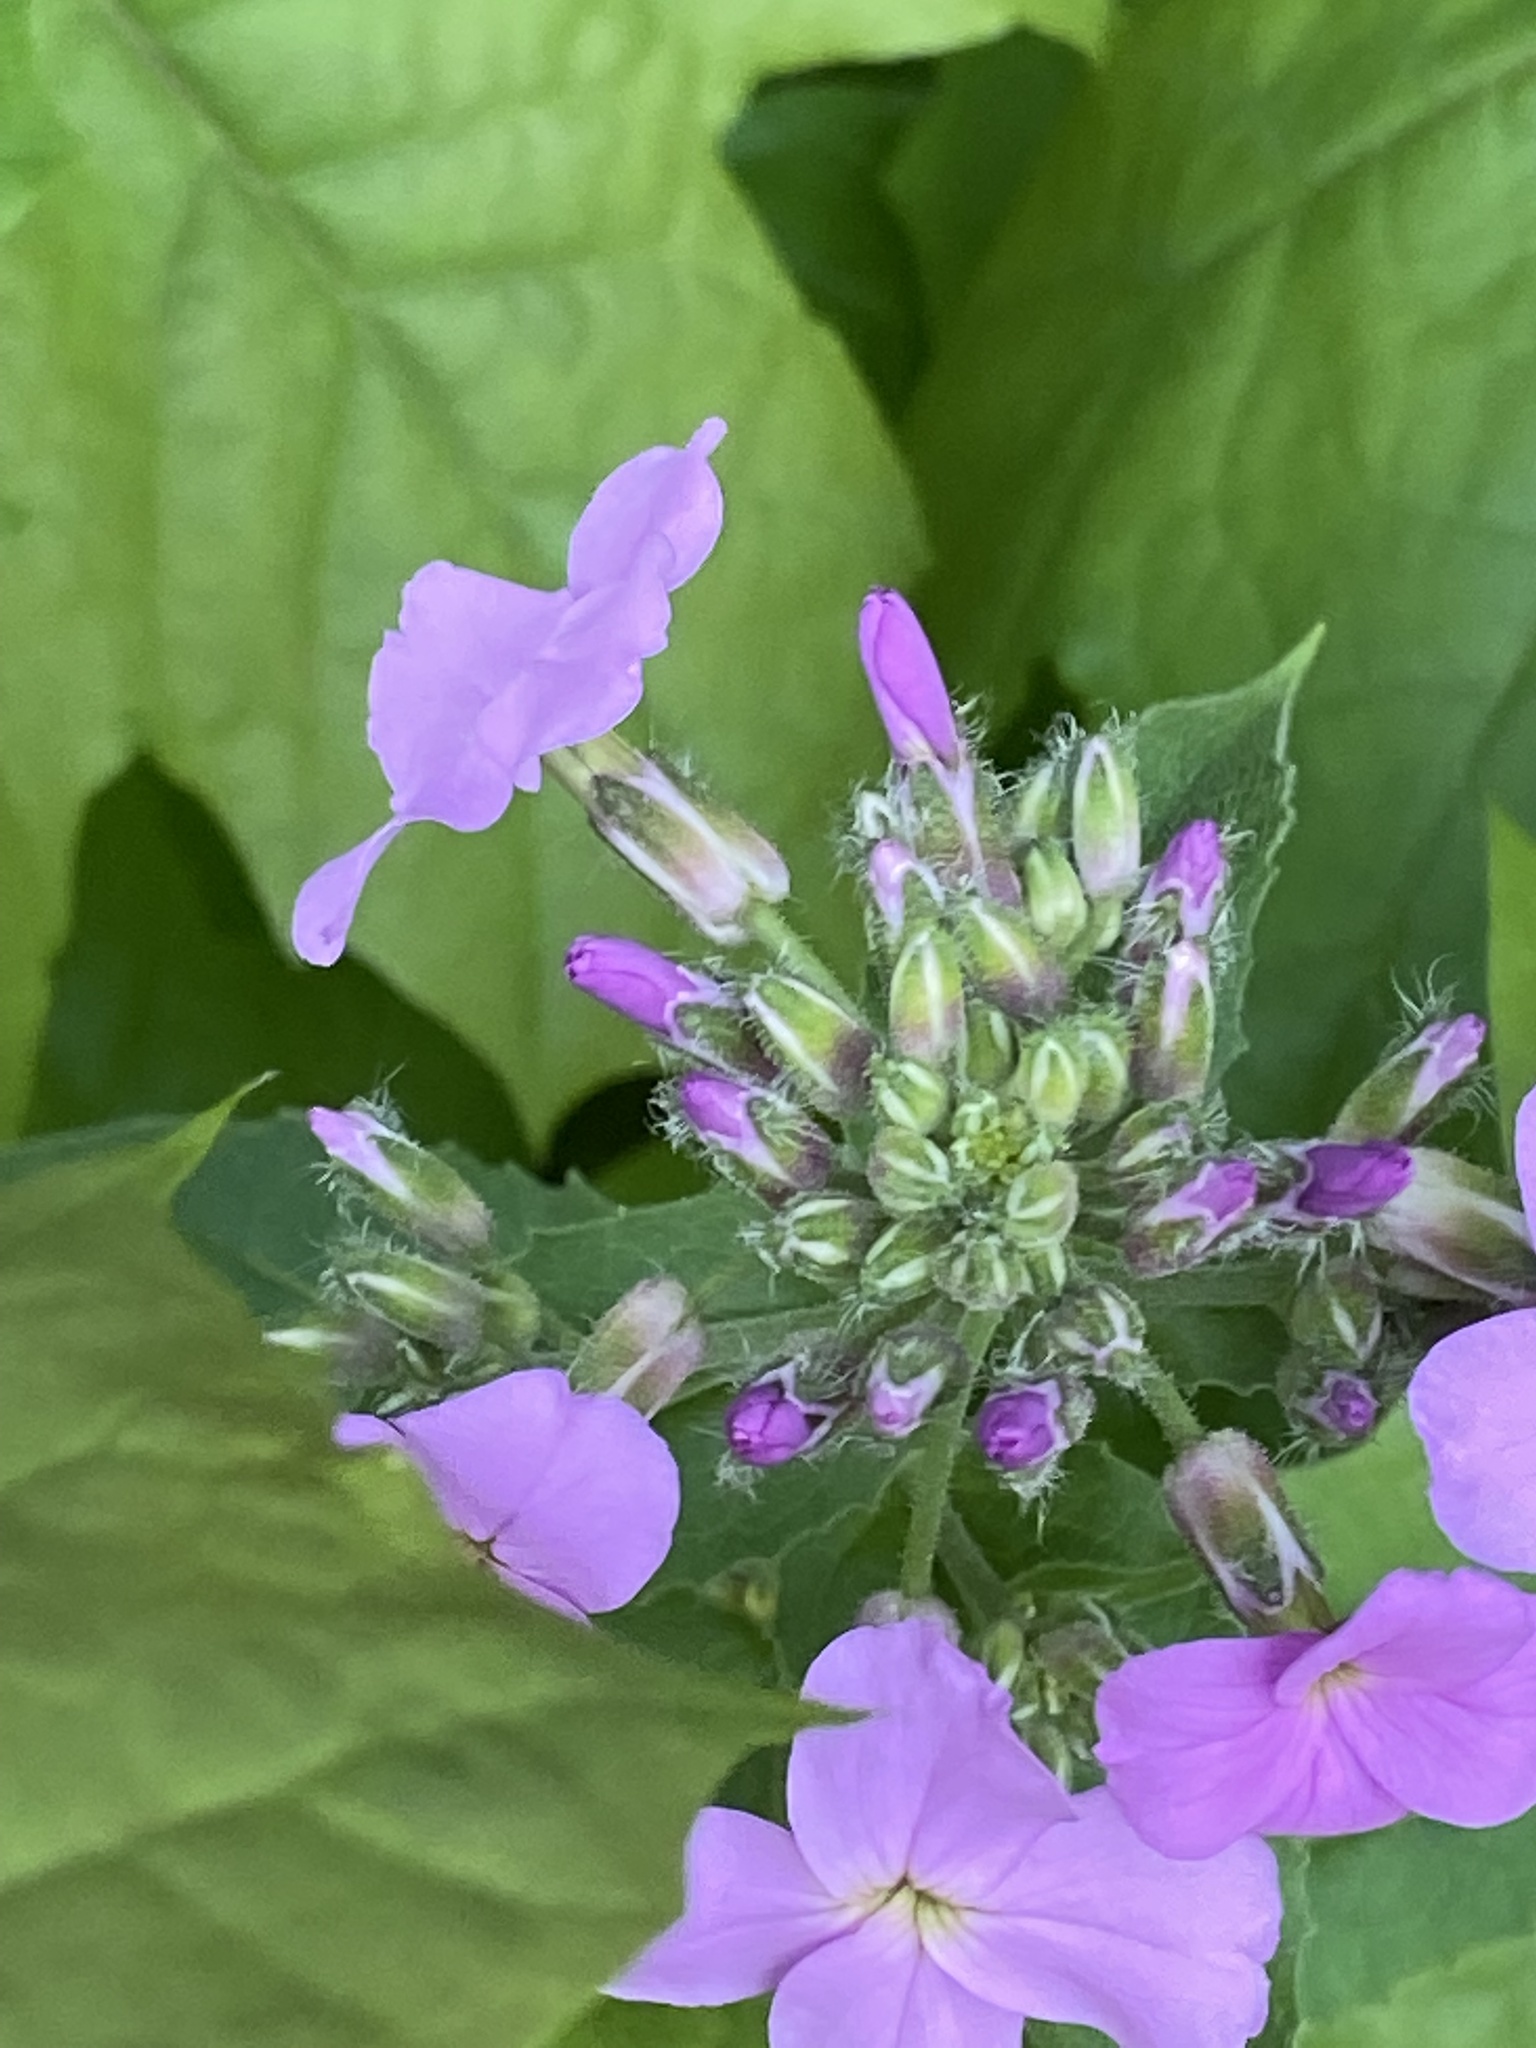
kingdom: Plantae
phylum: Tracheophyta
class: Magnoliopsida
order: Brassicales
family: Brassicaceae
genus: Hesperis
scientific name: Hesperis matronalis
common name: Dame's-violet
